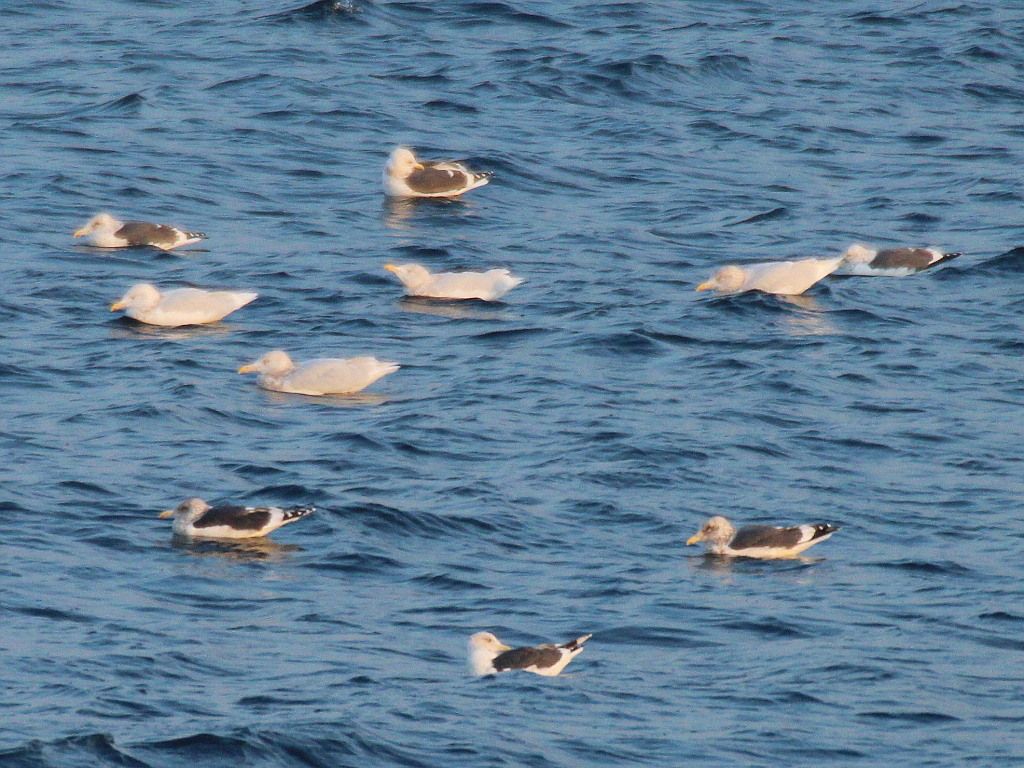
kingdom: Animalia
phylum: Chordata
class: Aves
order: Charadriiformes
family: Laridae
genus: Larus
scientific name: Larus schistisagus
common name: Slaty-backed gull
